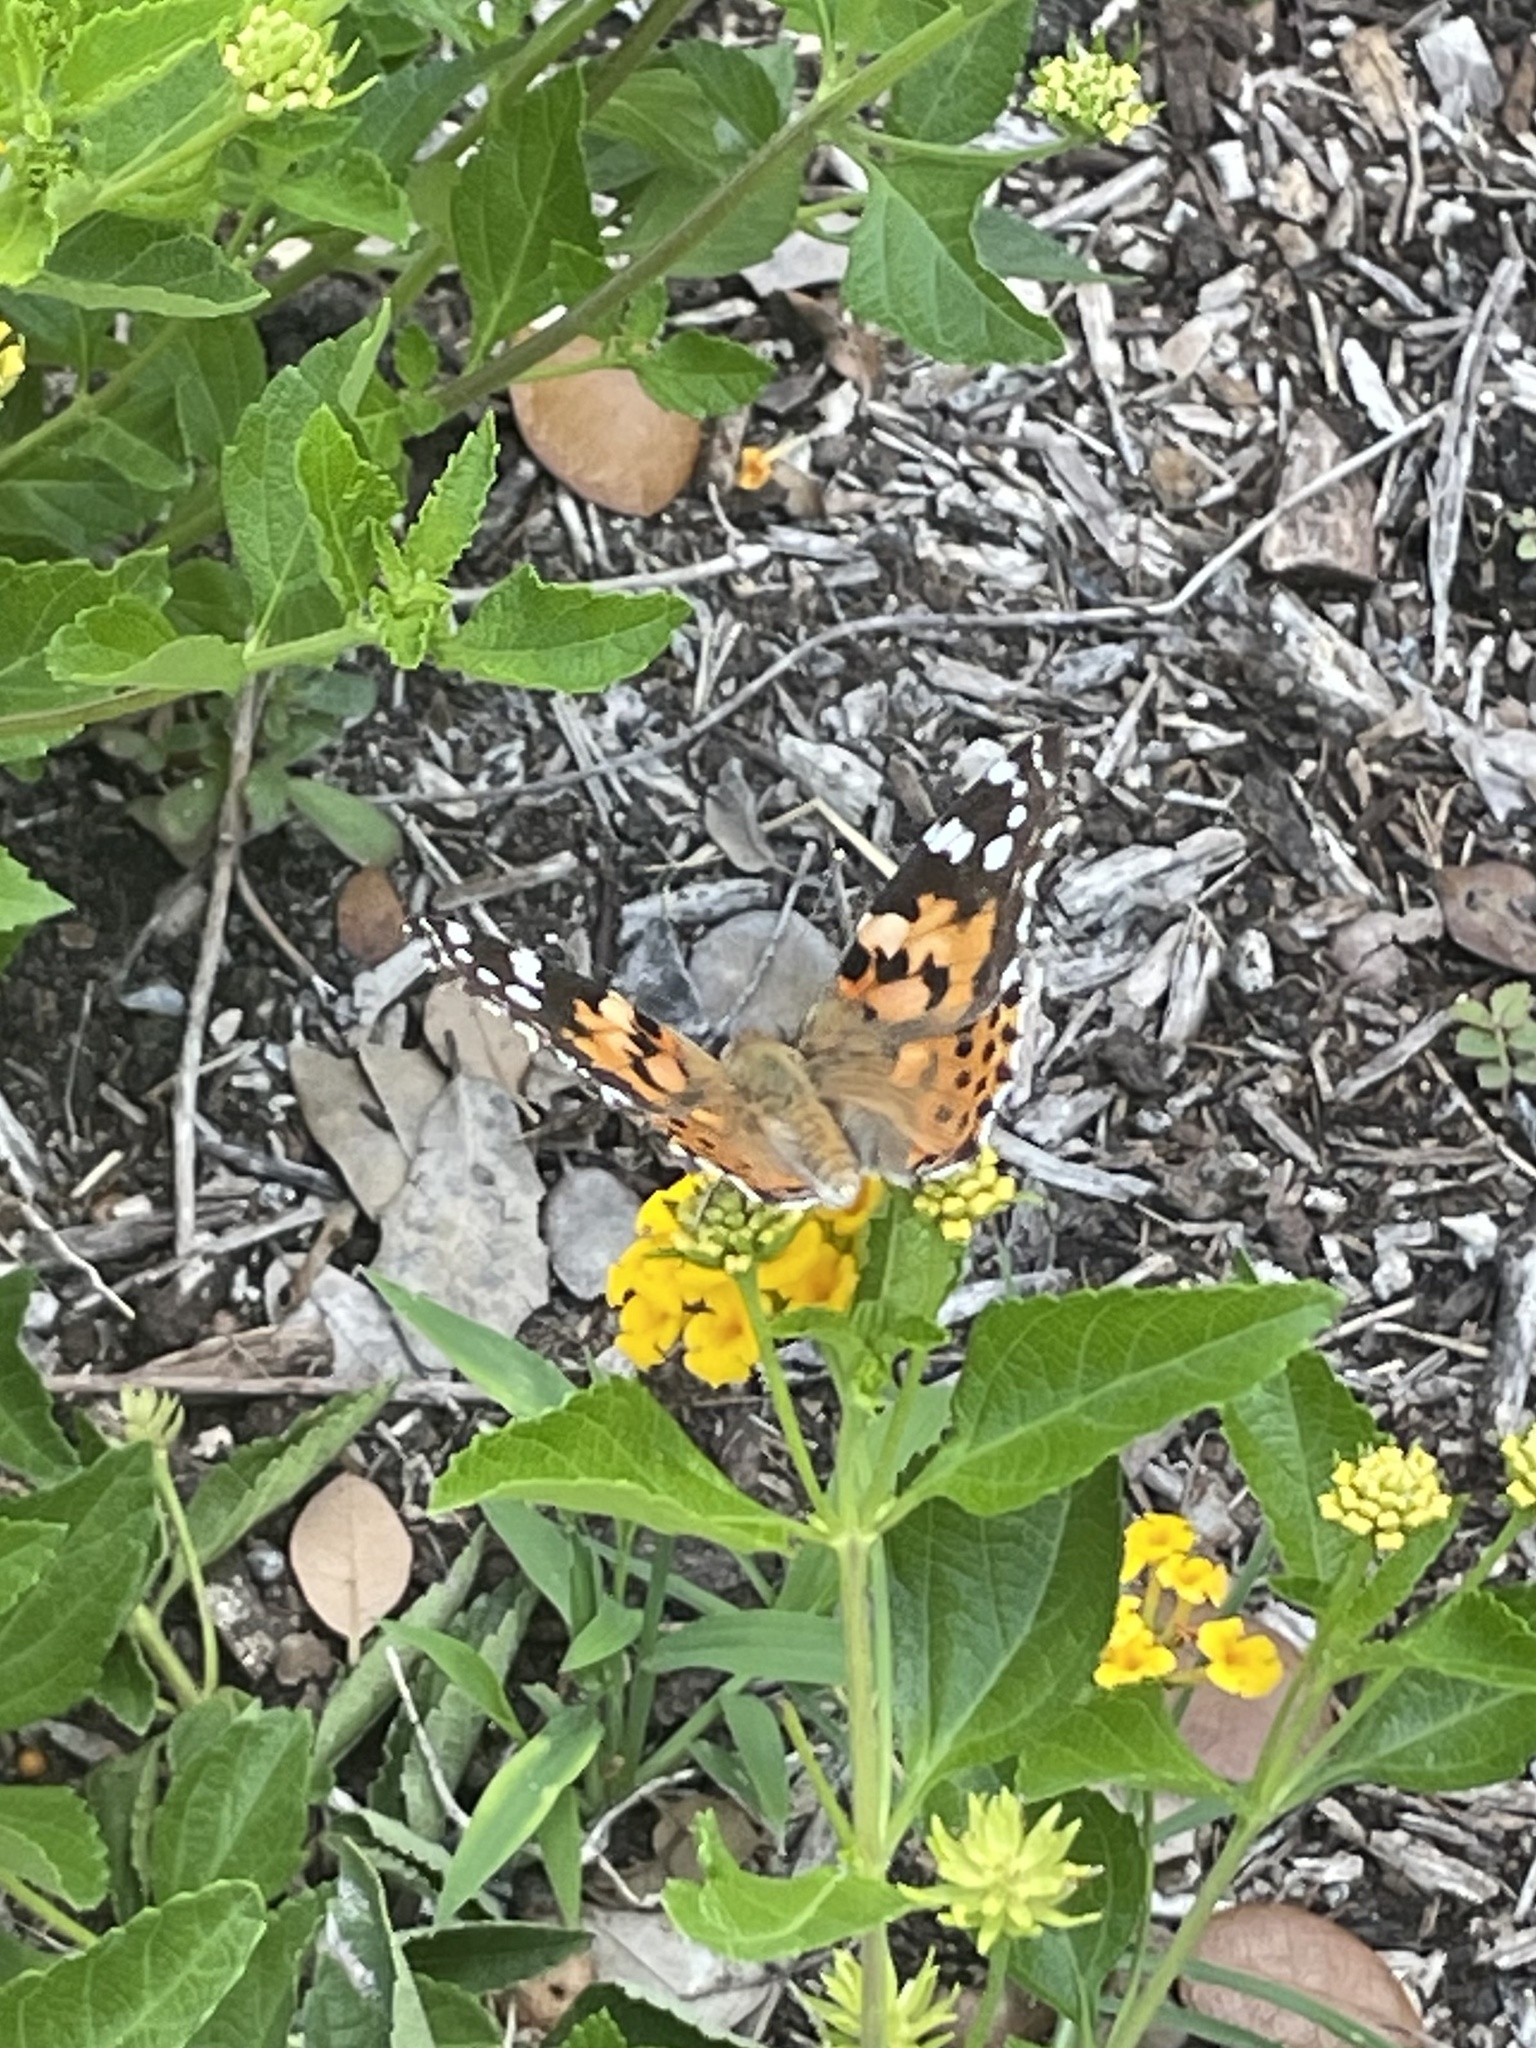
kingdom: Animalia
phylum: Arthropoda
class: Insecta
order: Lepidoptera
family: Nymphalidae
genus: Vanessa
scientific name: Vanessa cardui
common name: Painted lady
